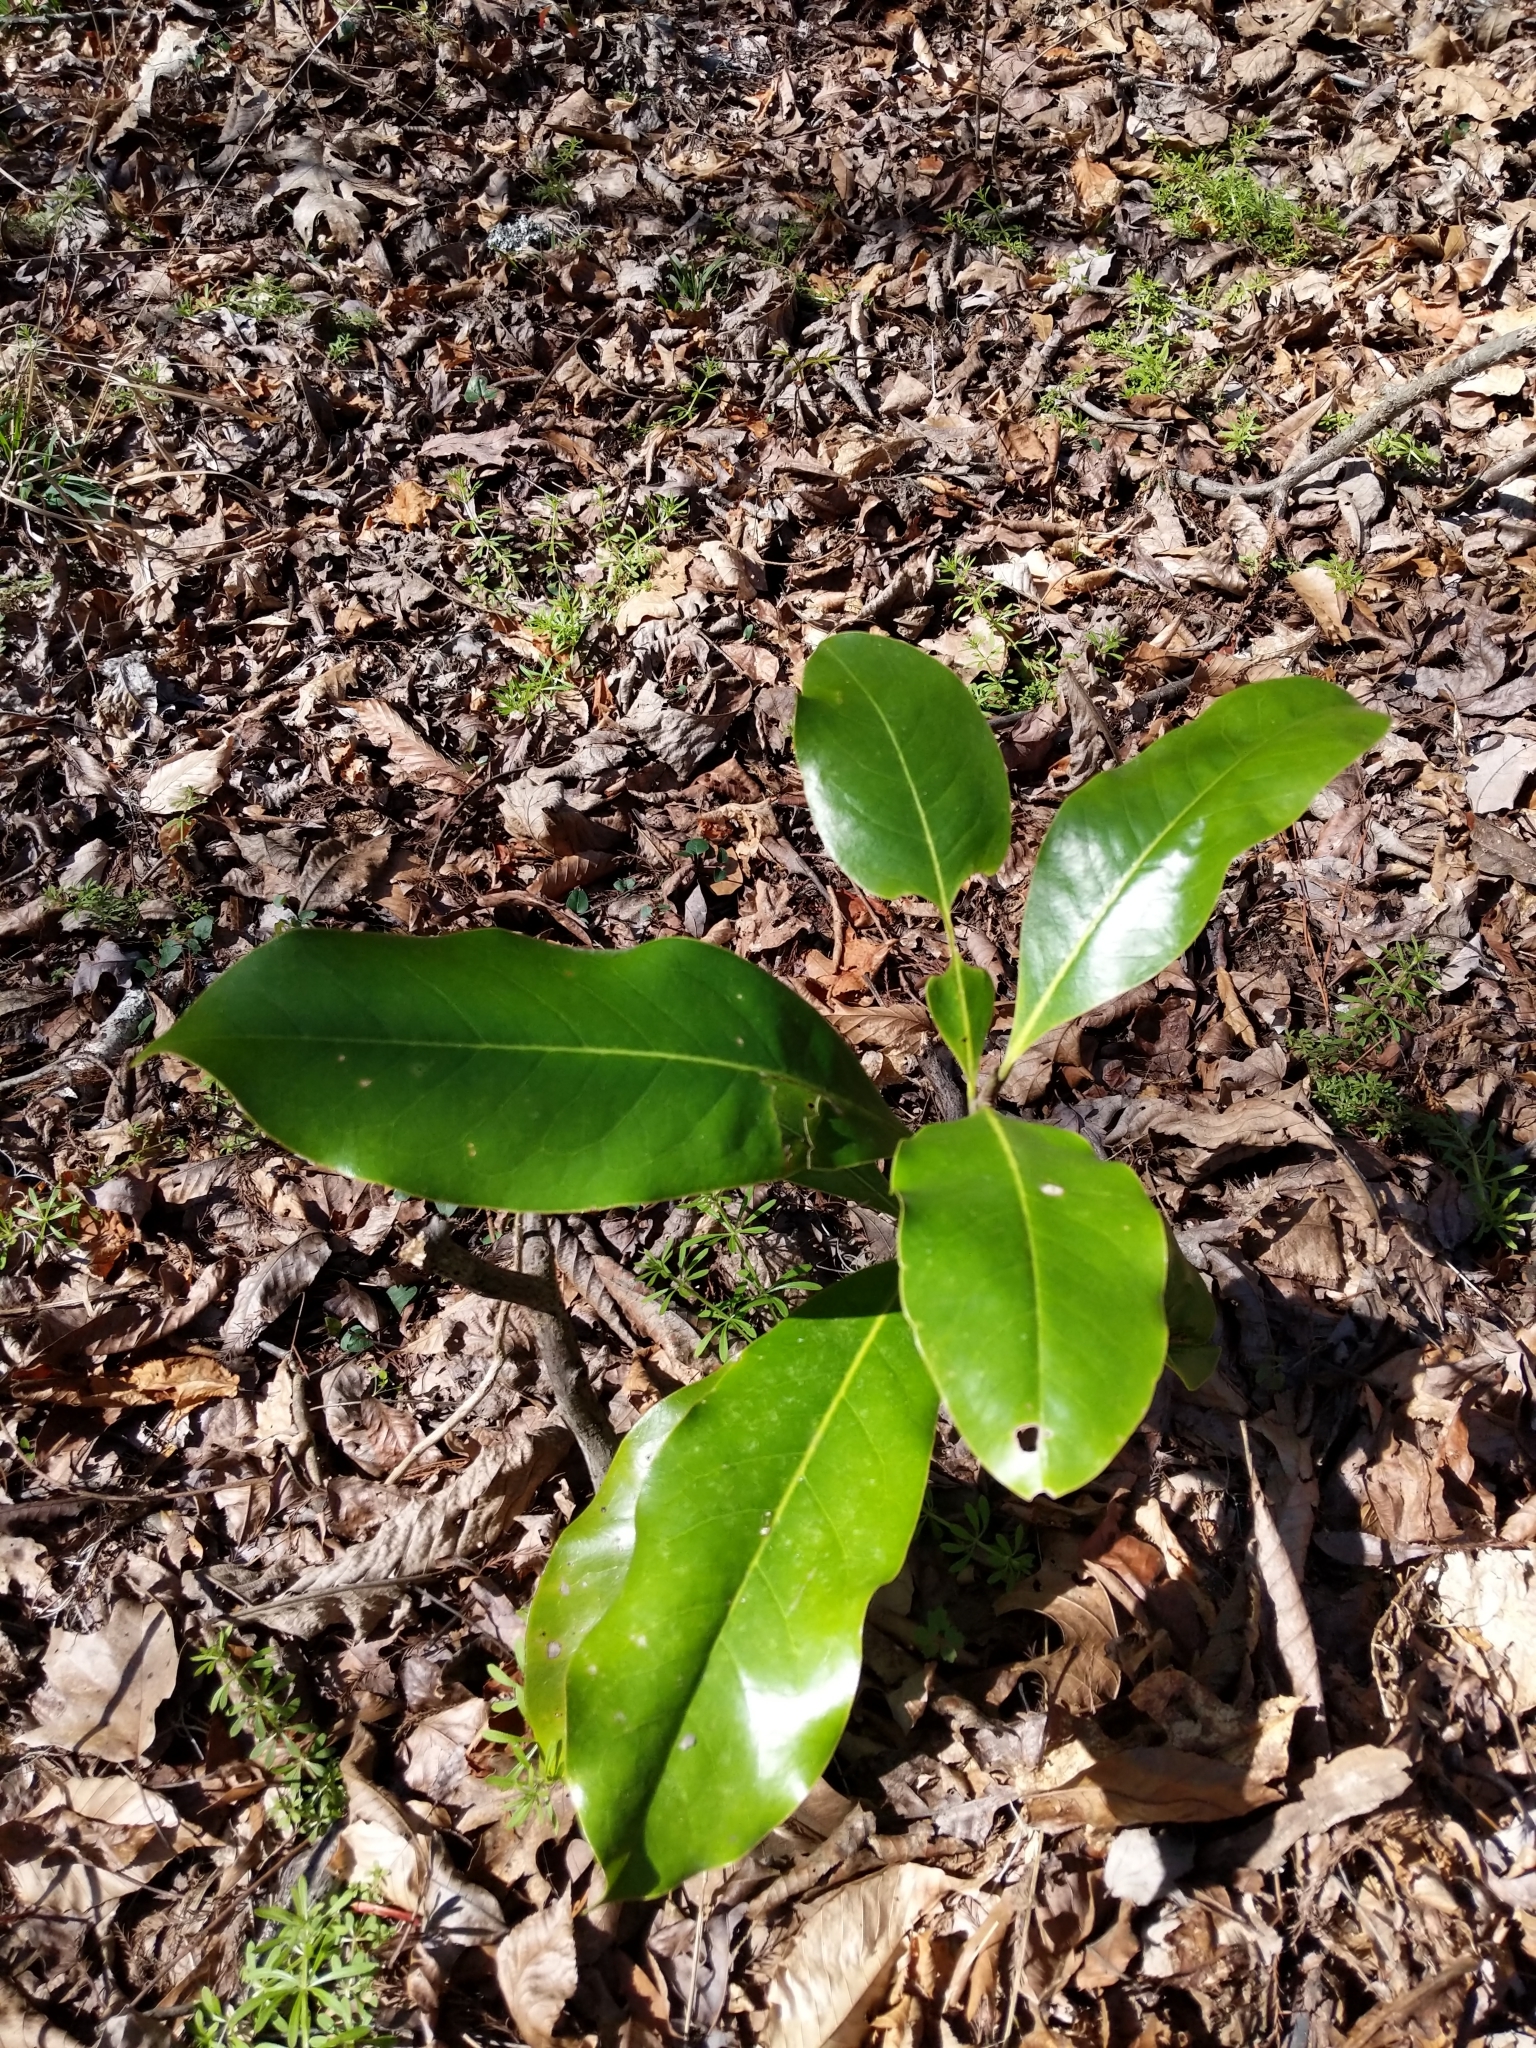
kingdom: Plantae
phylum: Tracheophyta
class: Magnoliopsida
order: Magnoliales
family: Magnoliaceae
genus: Magnolia
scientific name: Magnolia grandiflora
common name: Southern magnolia
